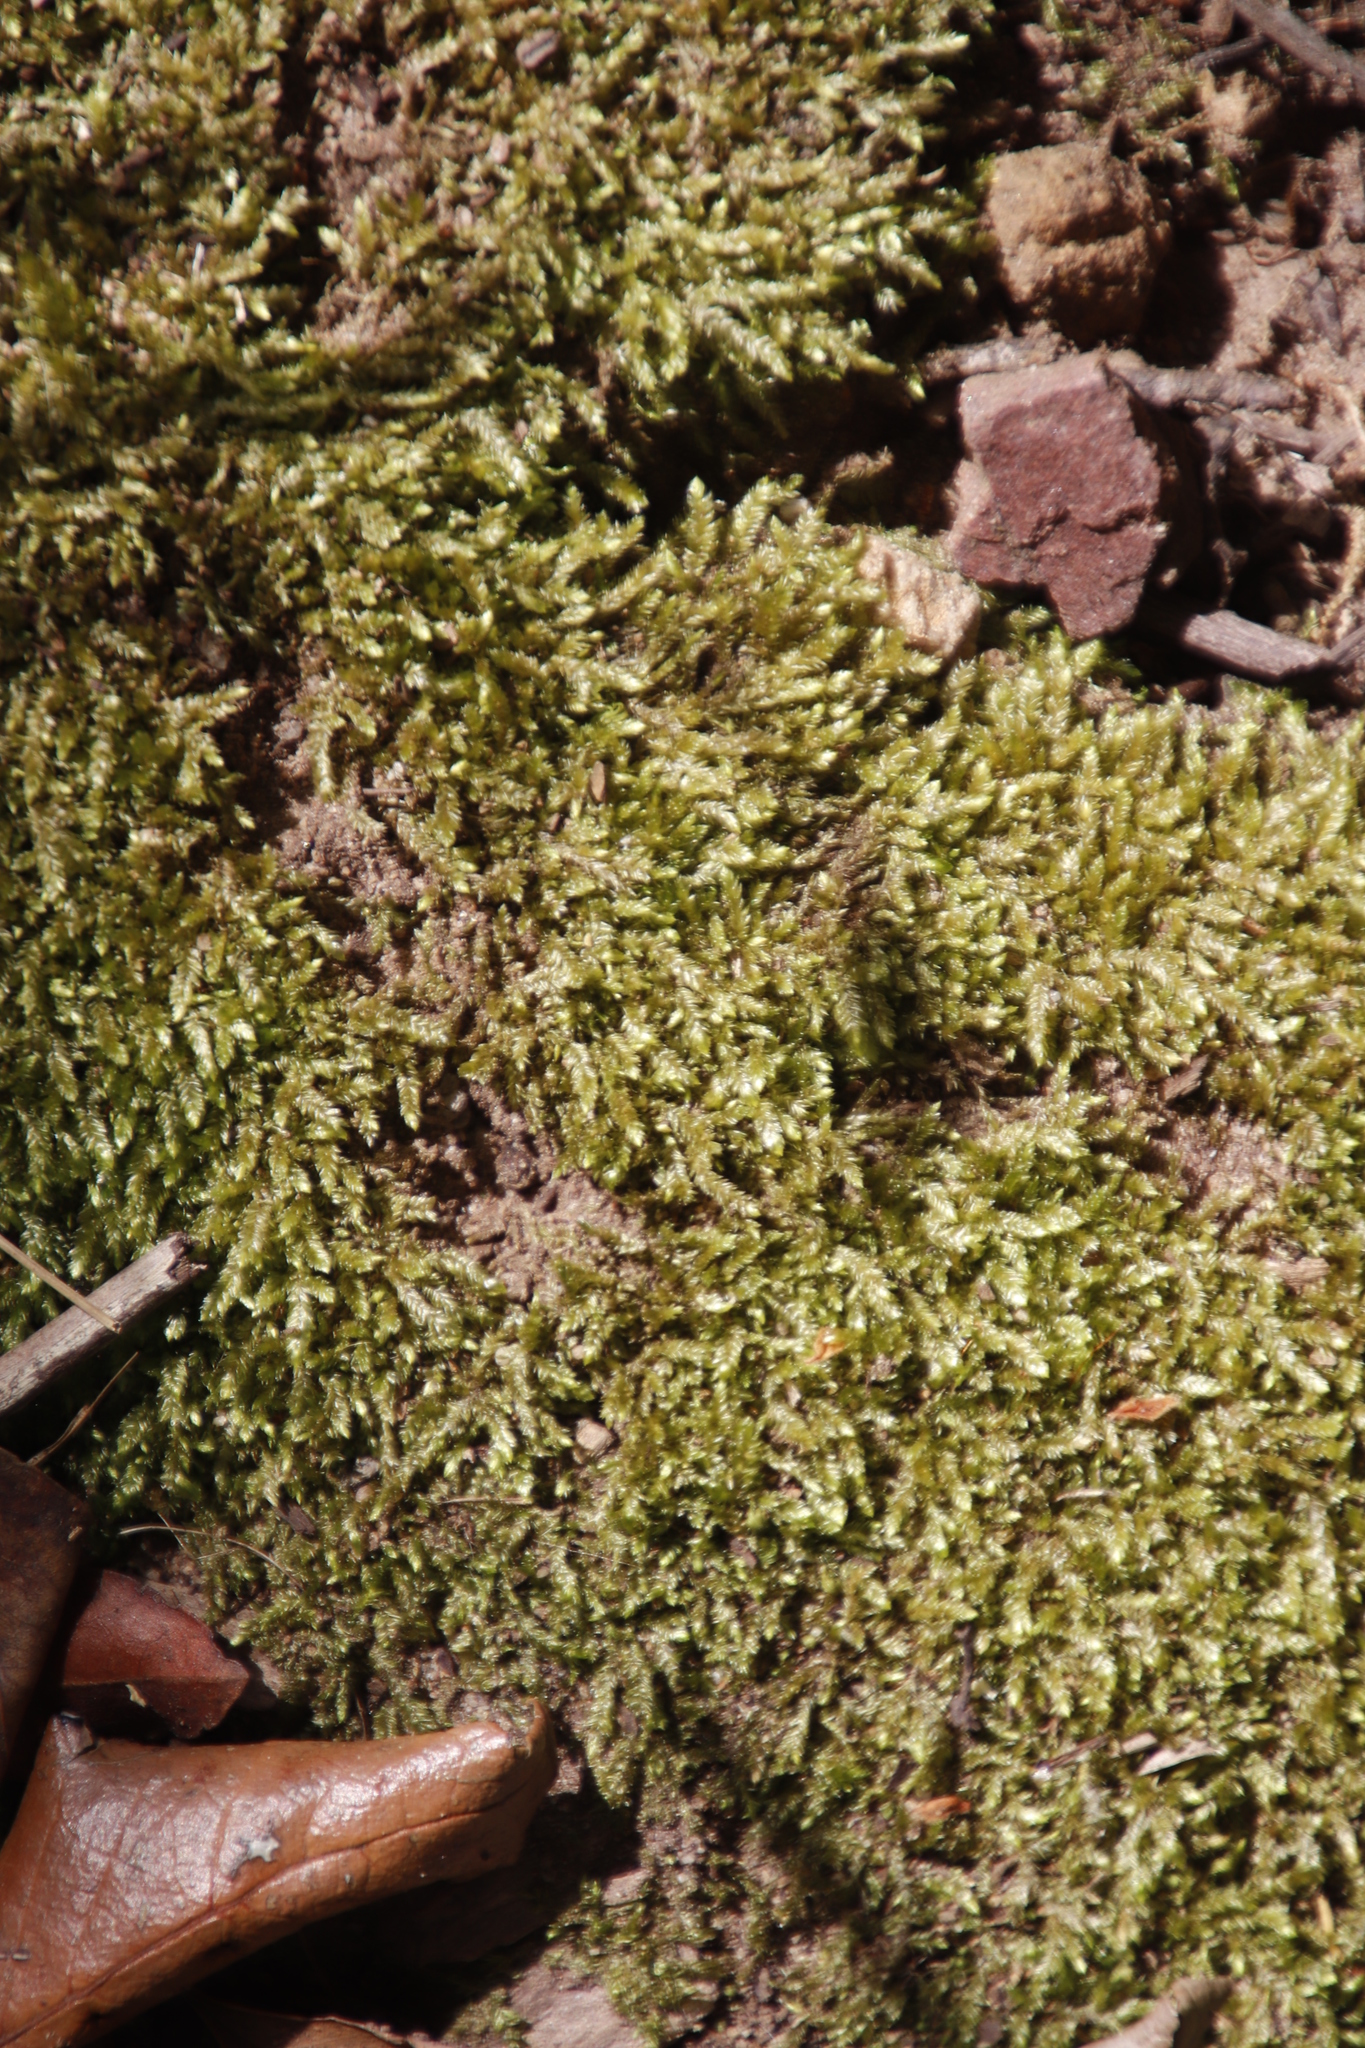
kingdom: Plantae
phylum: Bryophyta
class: Bryopsida
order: Hypnales
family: Catagoniaceae
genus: Catagonium
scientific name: Catagonium nitens
